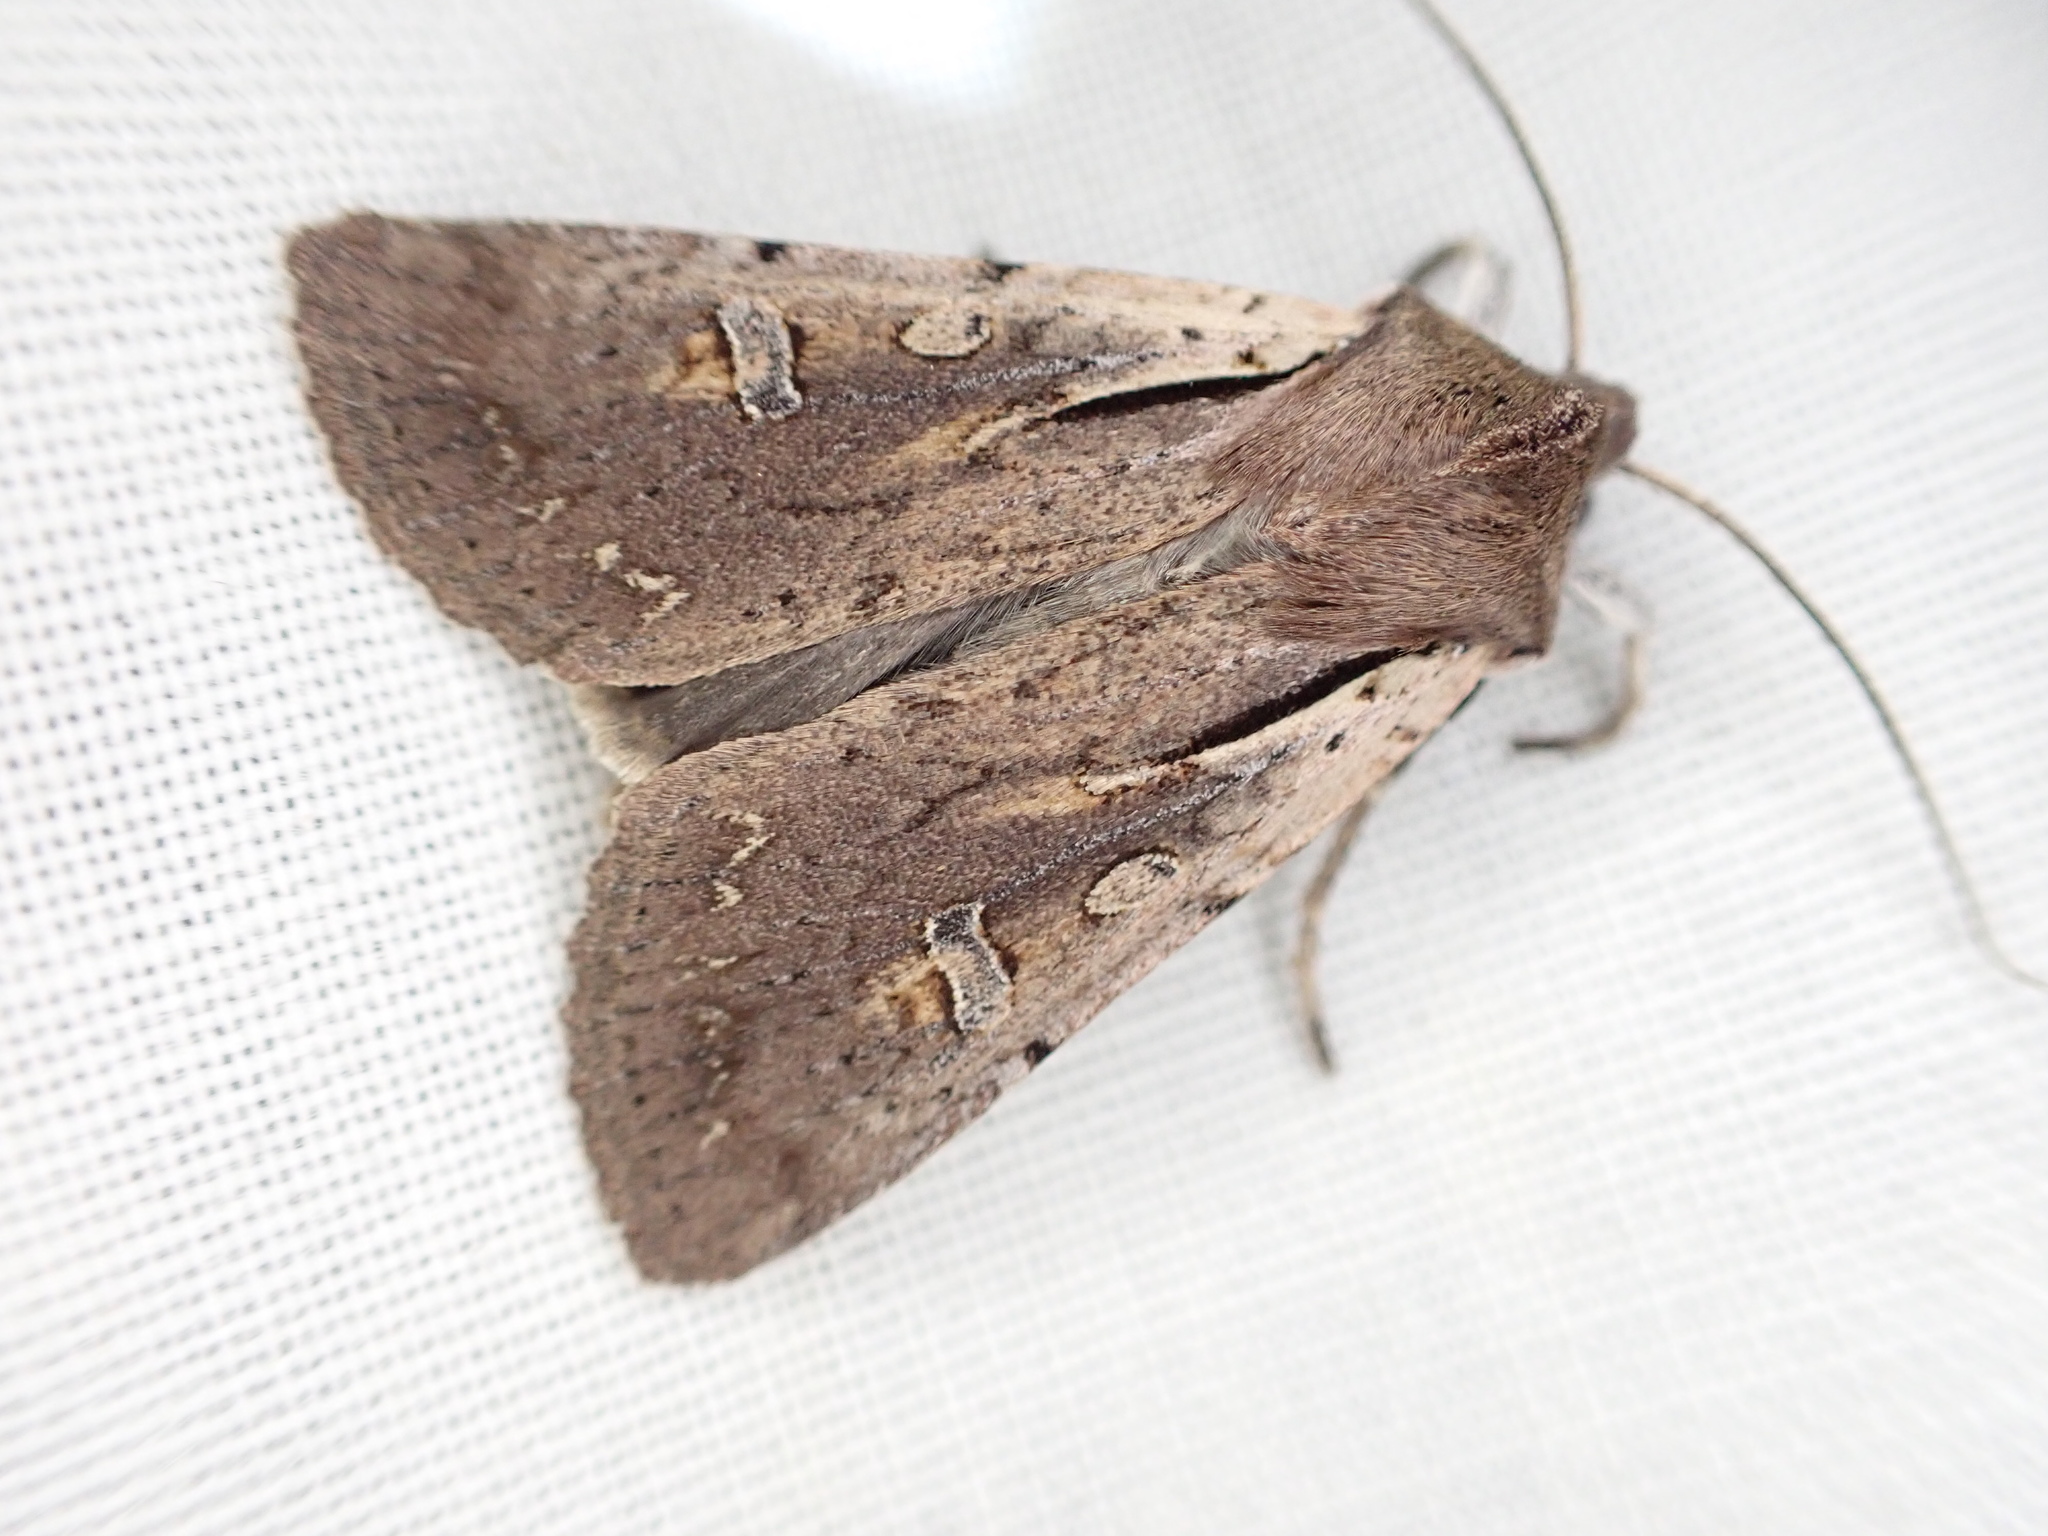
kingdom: Animalia
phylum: Arthropoda
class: Insecta
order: Lepidoptera
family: Noctuidae
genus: Ichneutica
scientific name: Ichneutica atristriga
